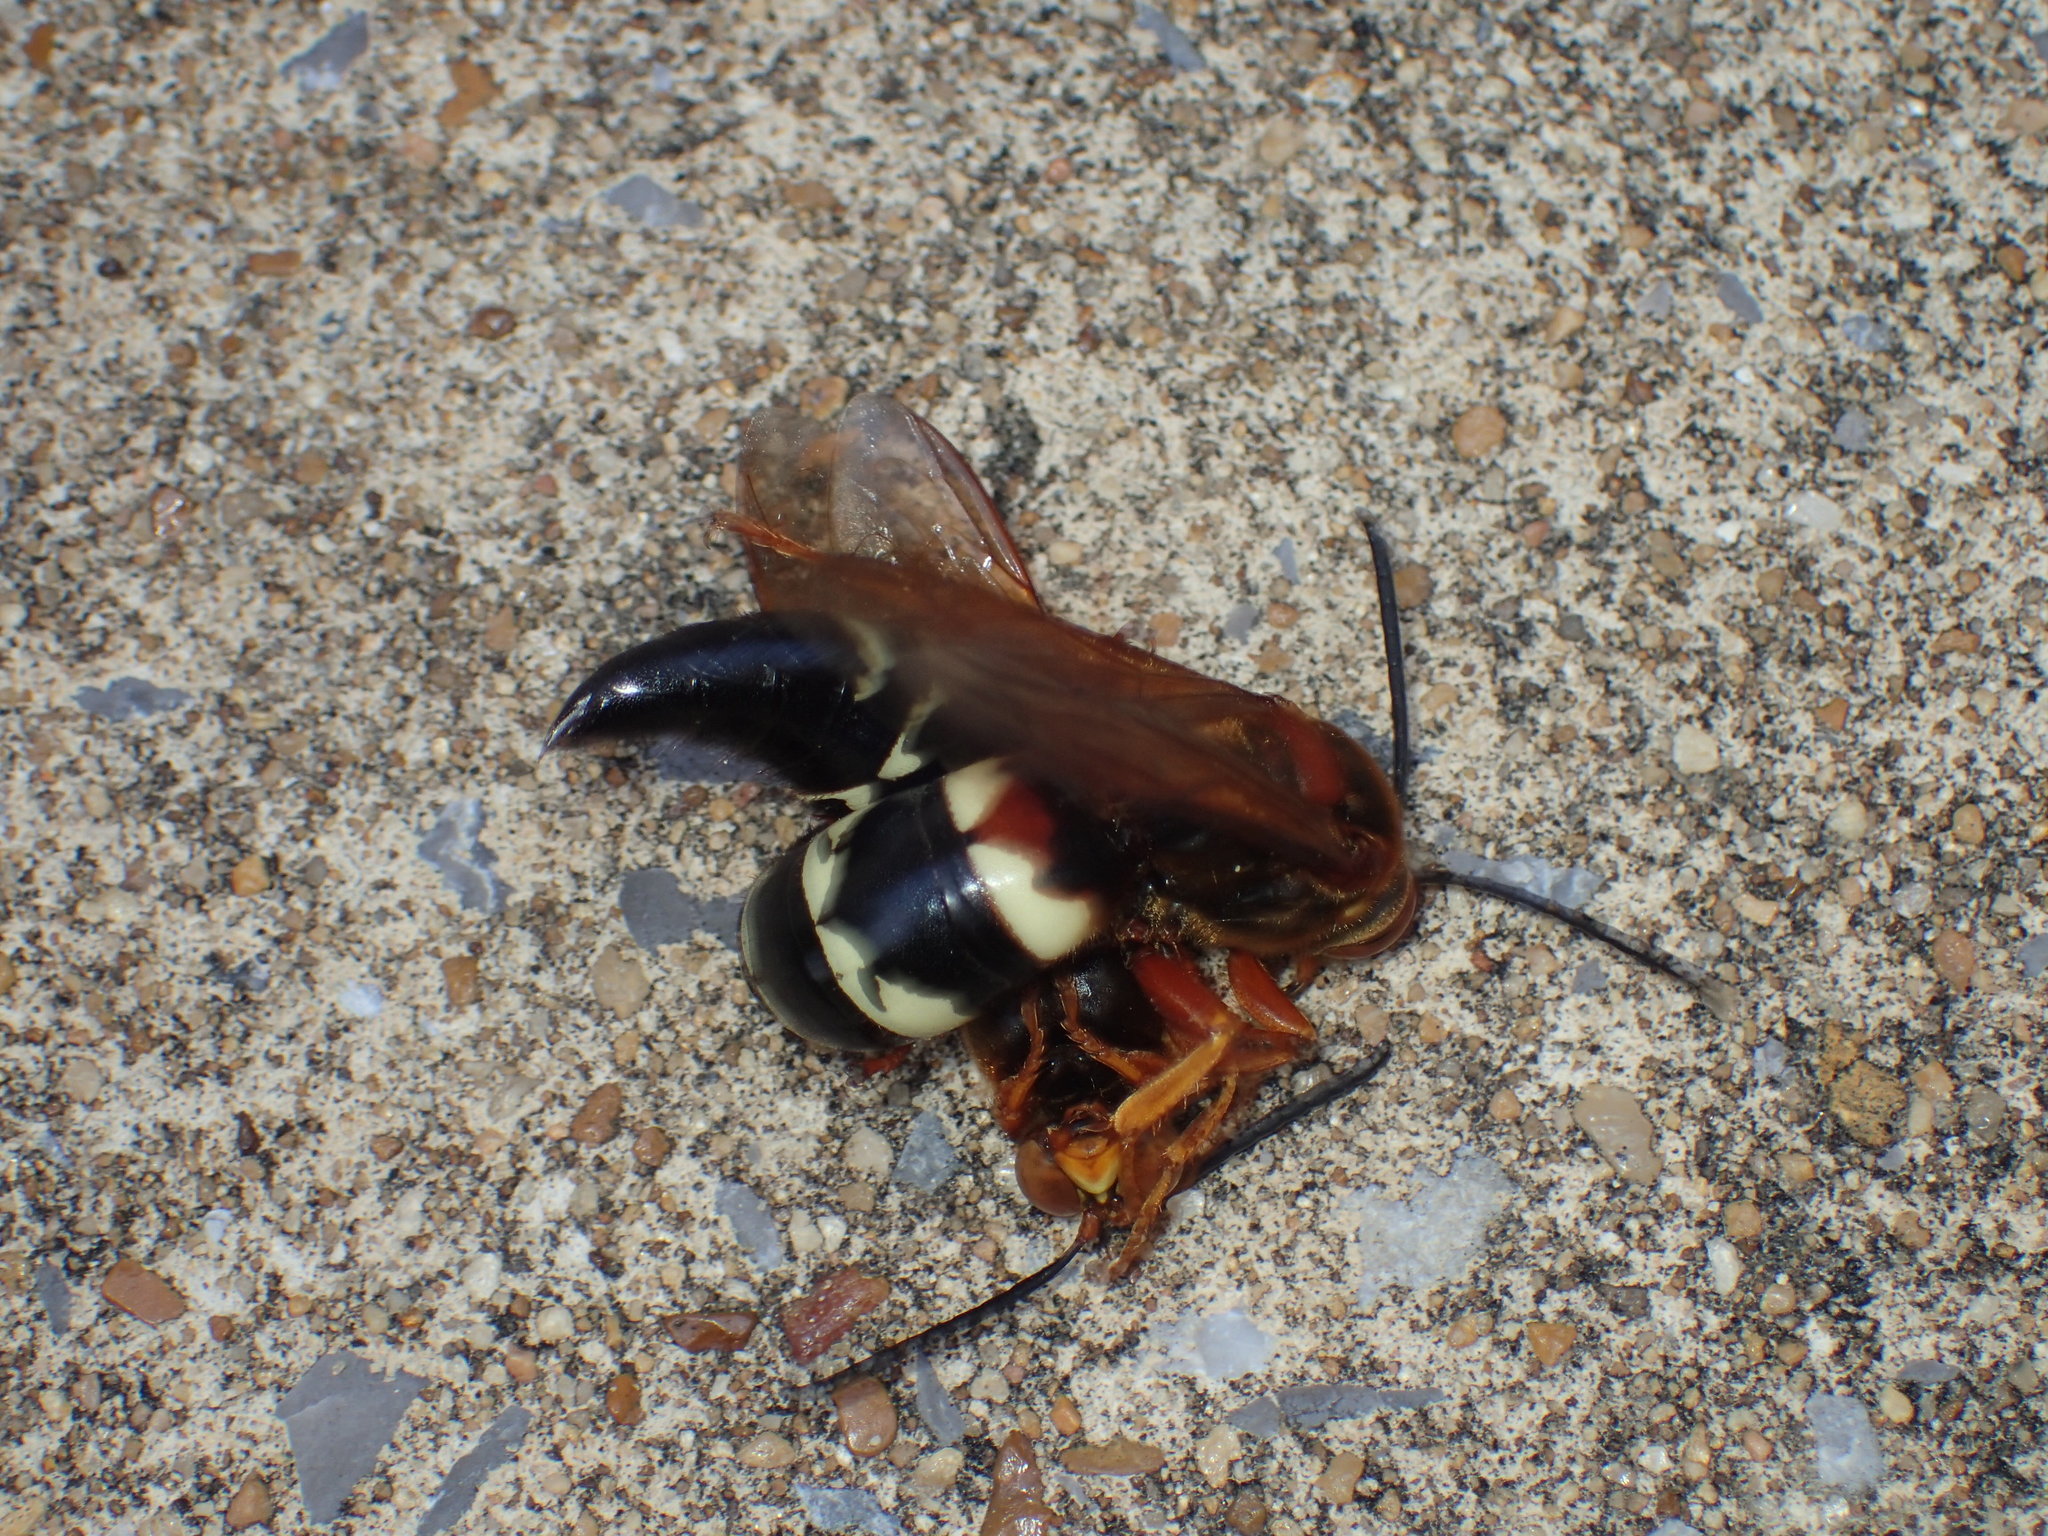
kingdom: Animalia
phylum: Arthropoda
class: Insecta
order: Hymenoptera
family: Crabronidae
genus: Sphecius
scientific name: Sphecius speciosus
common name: Cicada killer
